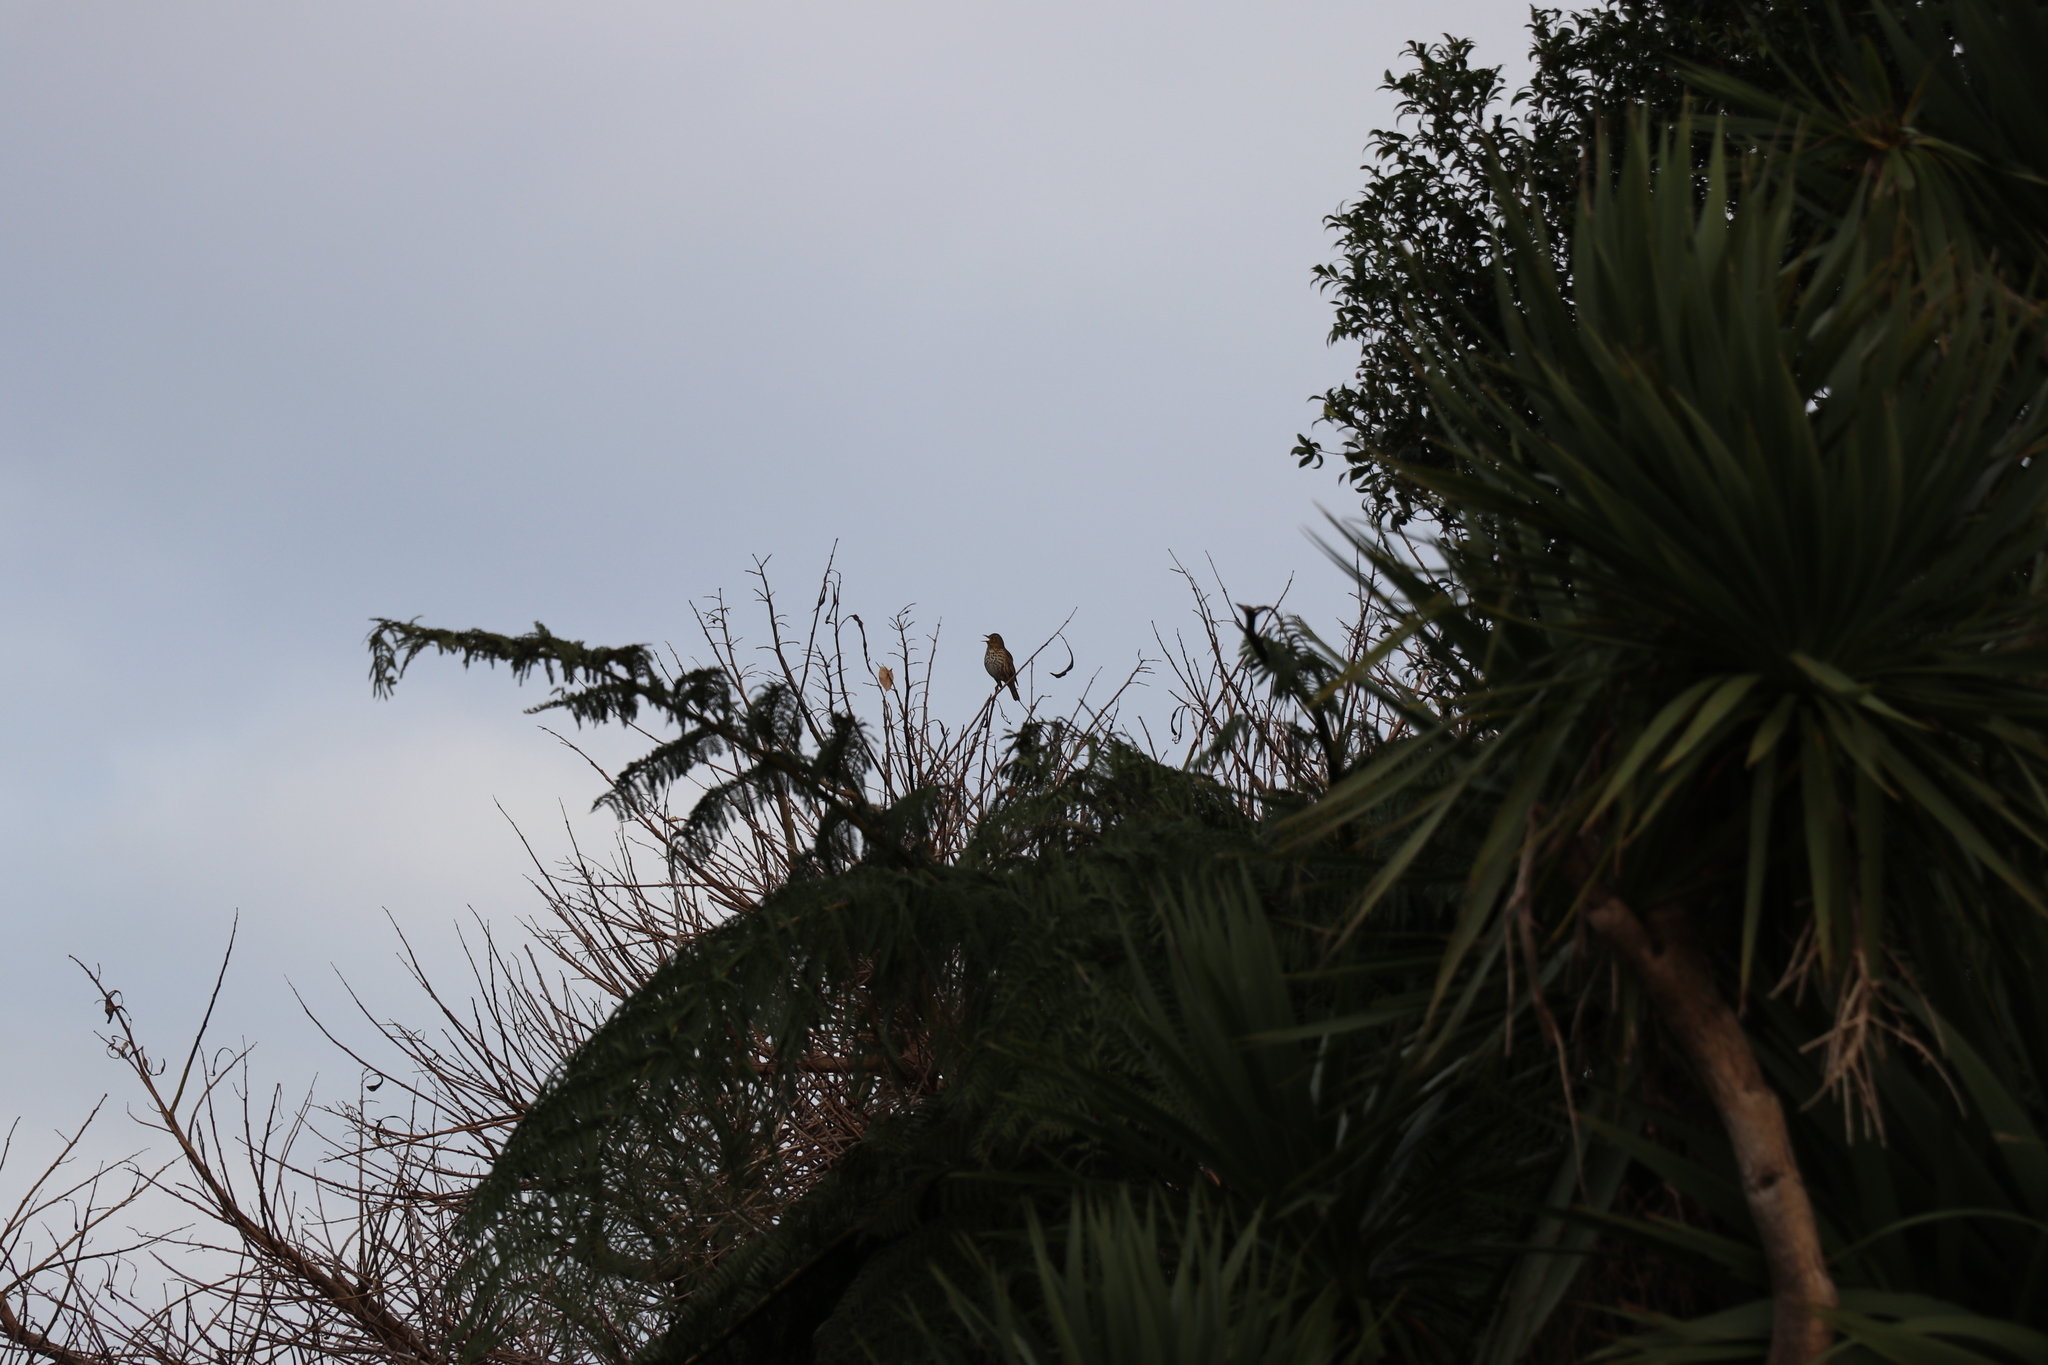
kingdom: Animalia
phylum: Chordata
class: Aves
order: Passeriformes
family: Turdidae
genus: Turdus
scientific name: Turdus philomelos
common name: Song thrush
